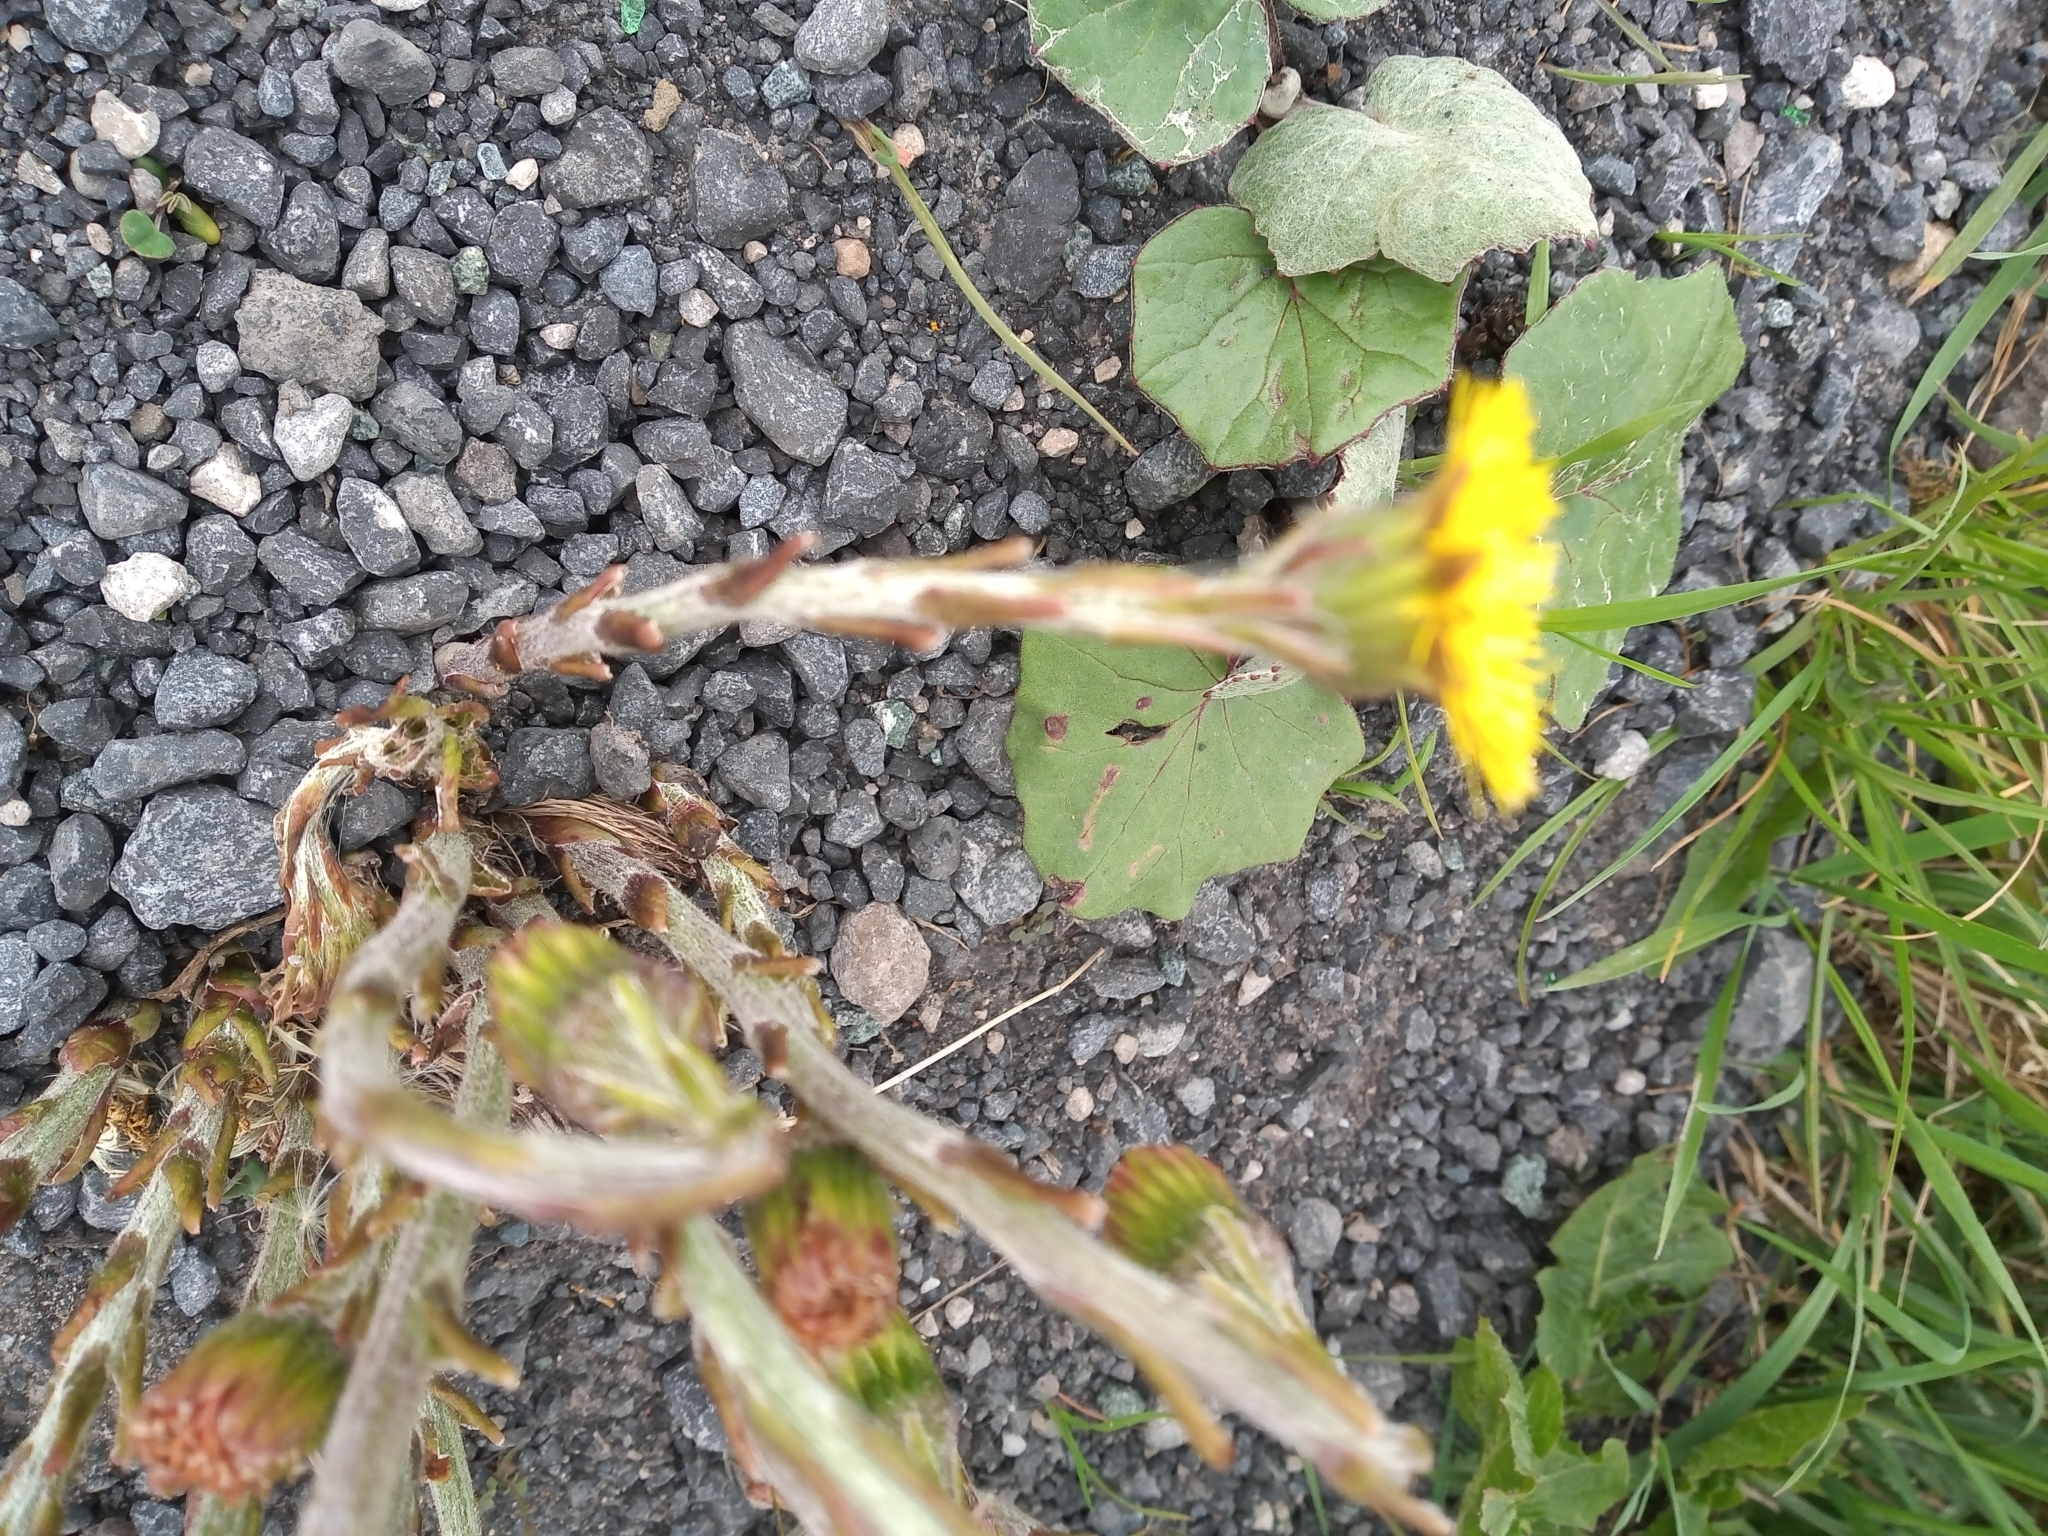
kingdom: Plantae
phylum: Tracheophyta
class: Magnoliopsida
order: Asterales
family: Asteraceae
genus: Tussilago
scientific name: Tussilago farfara
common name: Coltsfoot
